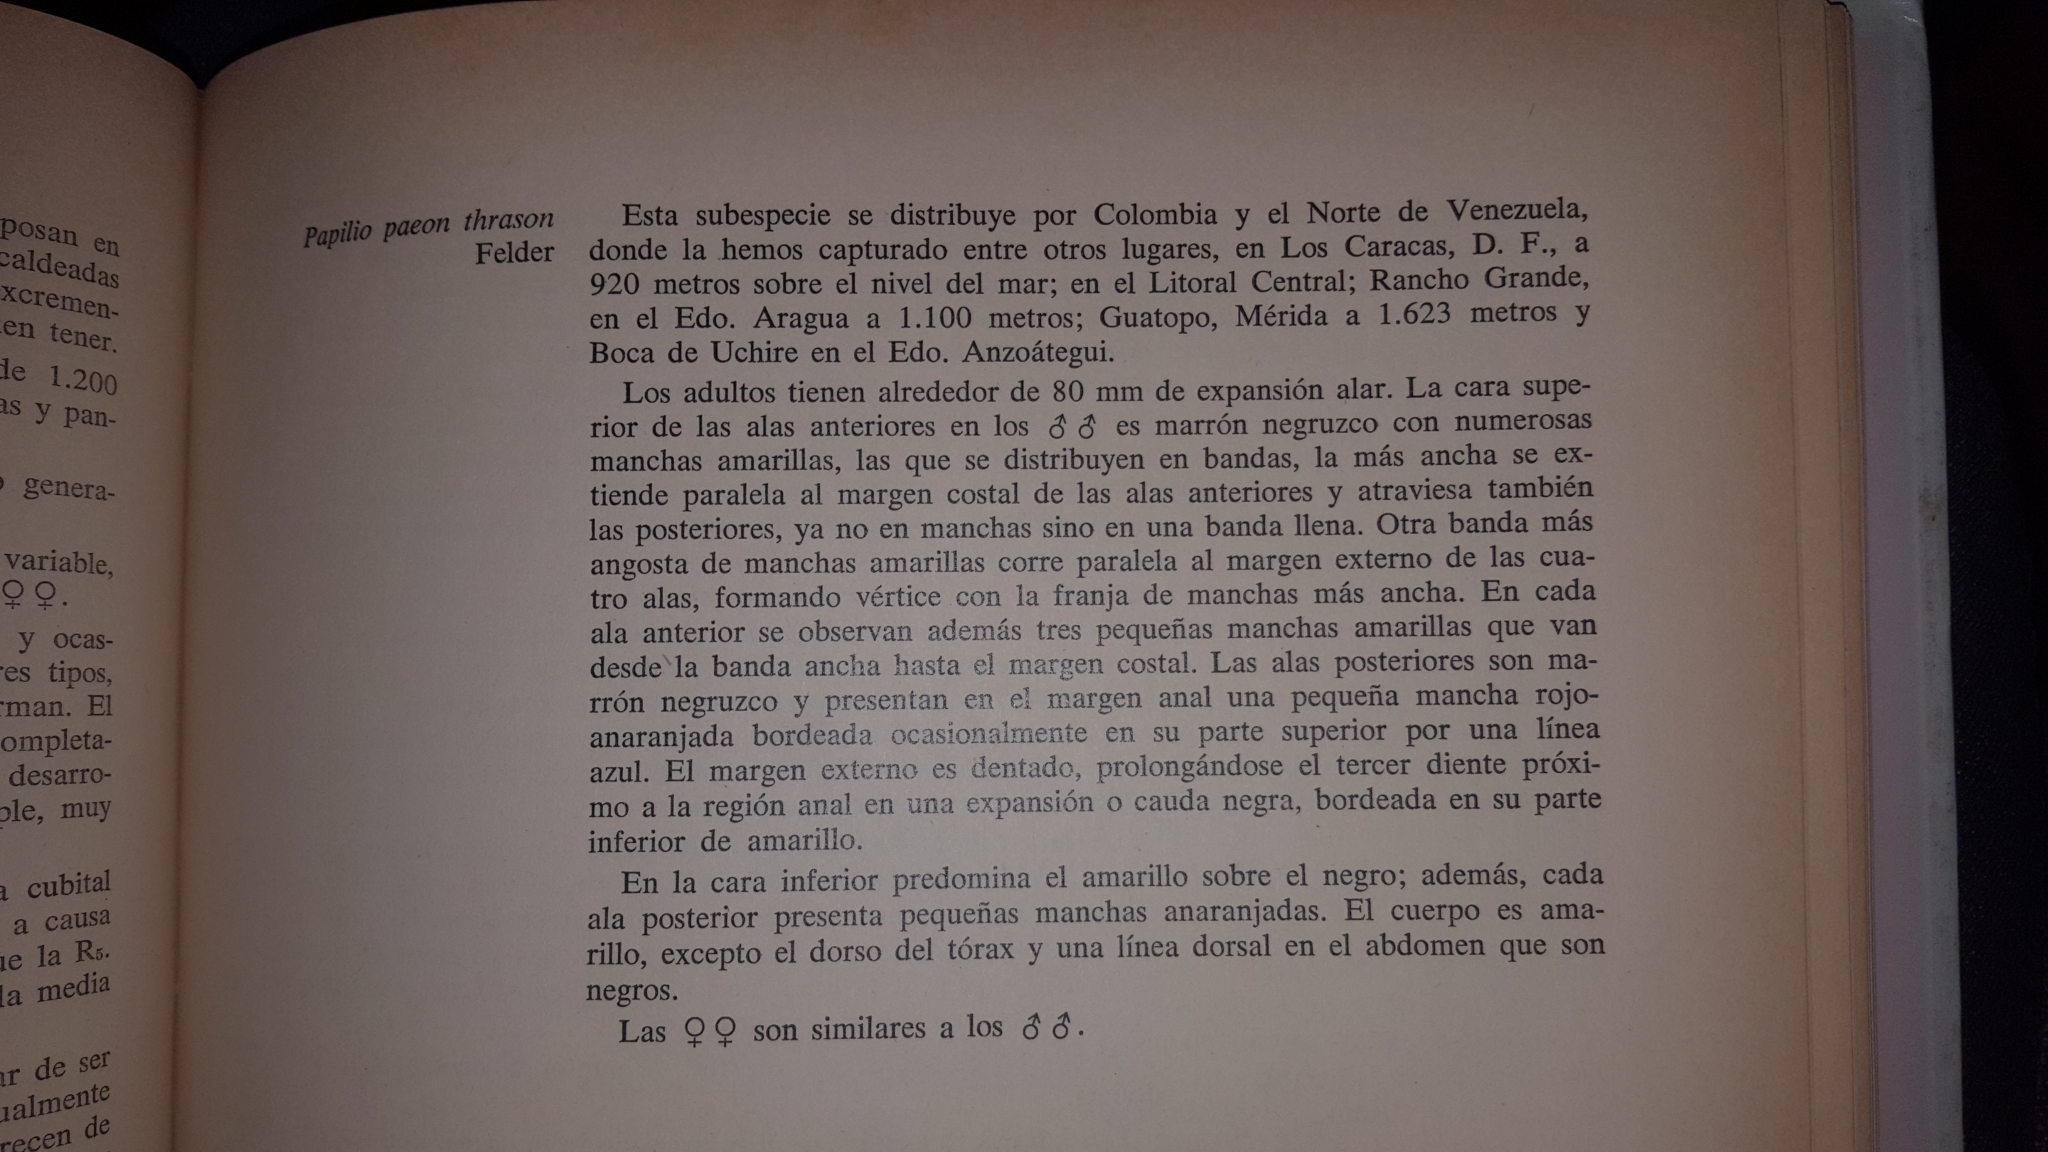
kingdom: Animalia
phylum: Arthropoda
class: Insecta
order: Lepidoptera
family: Papilionidae
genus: Heraclides
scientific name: Heraclides pallas
